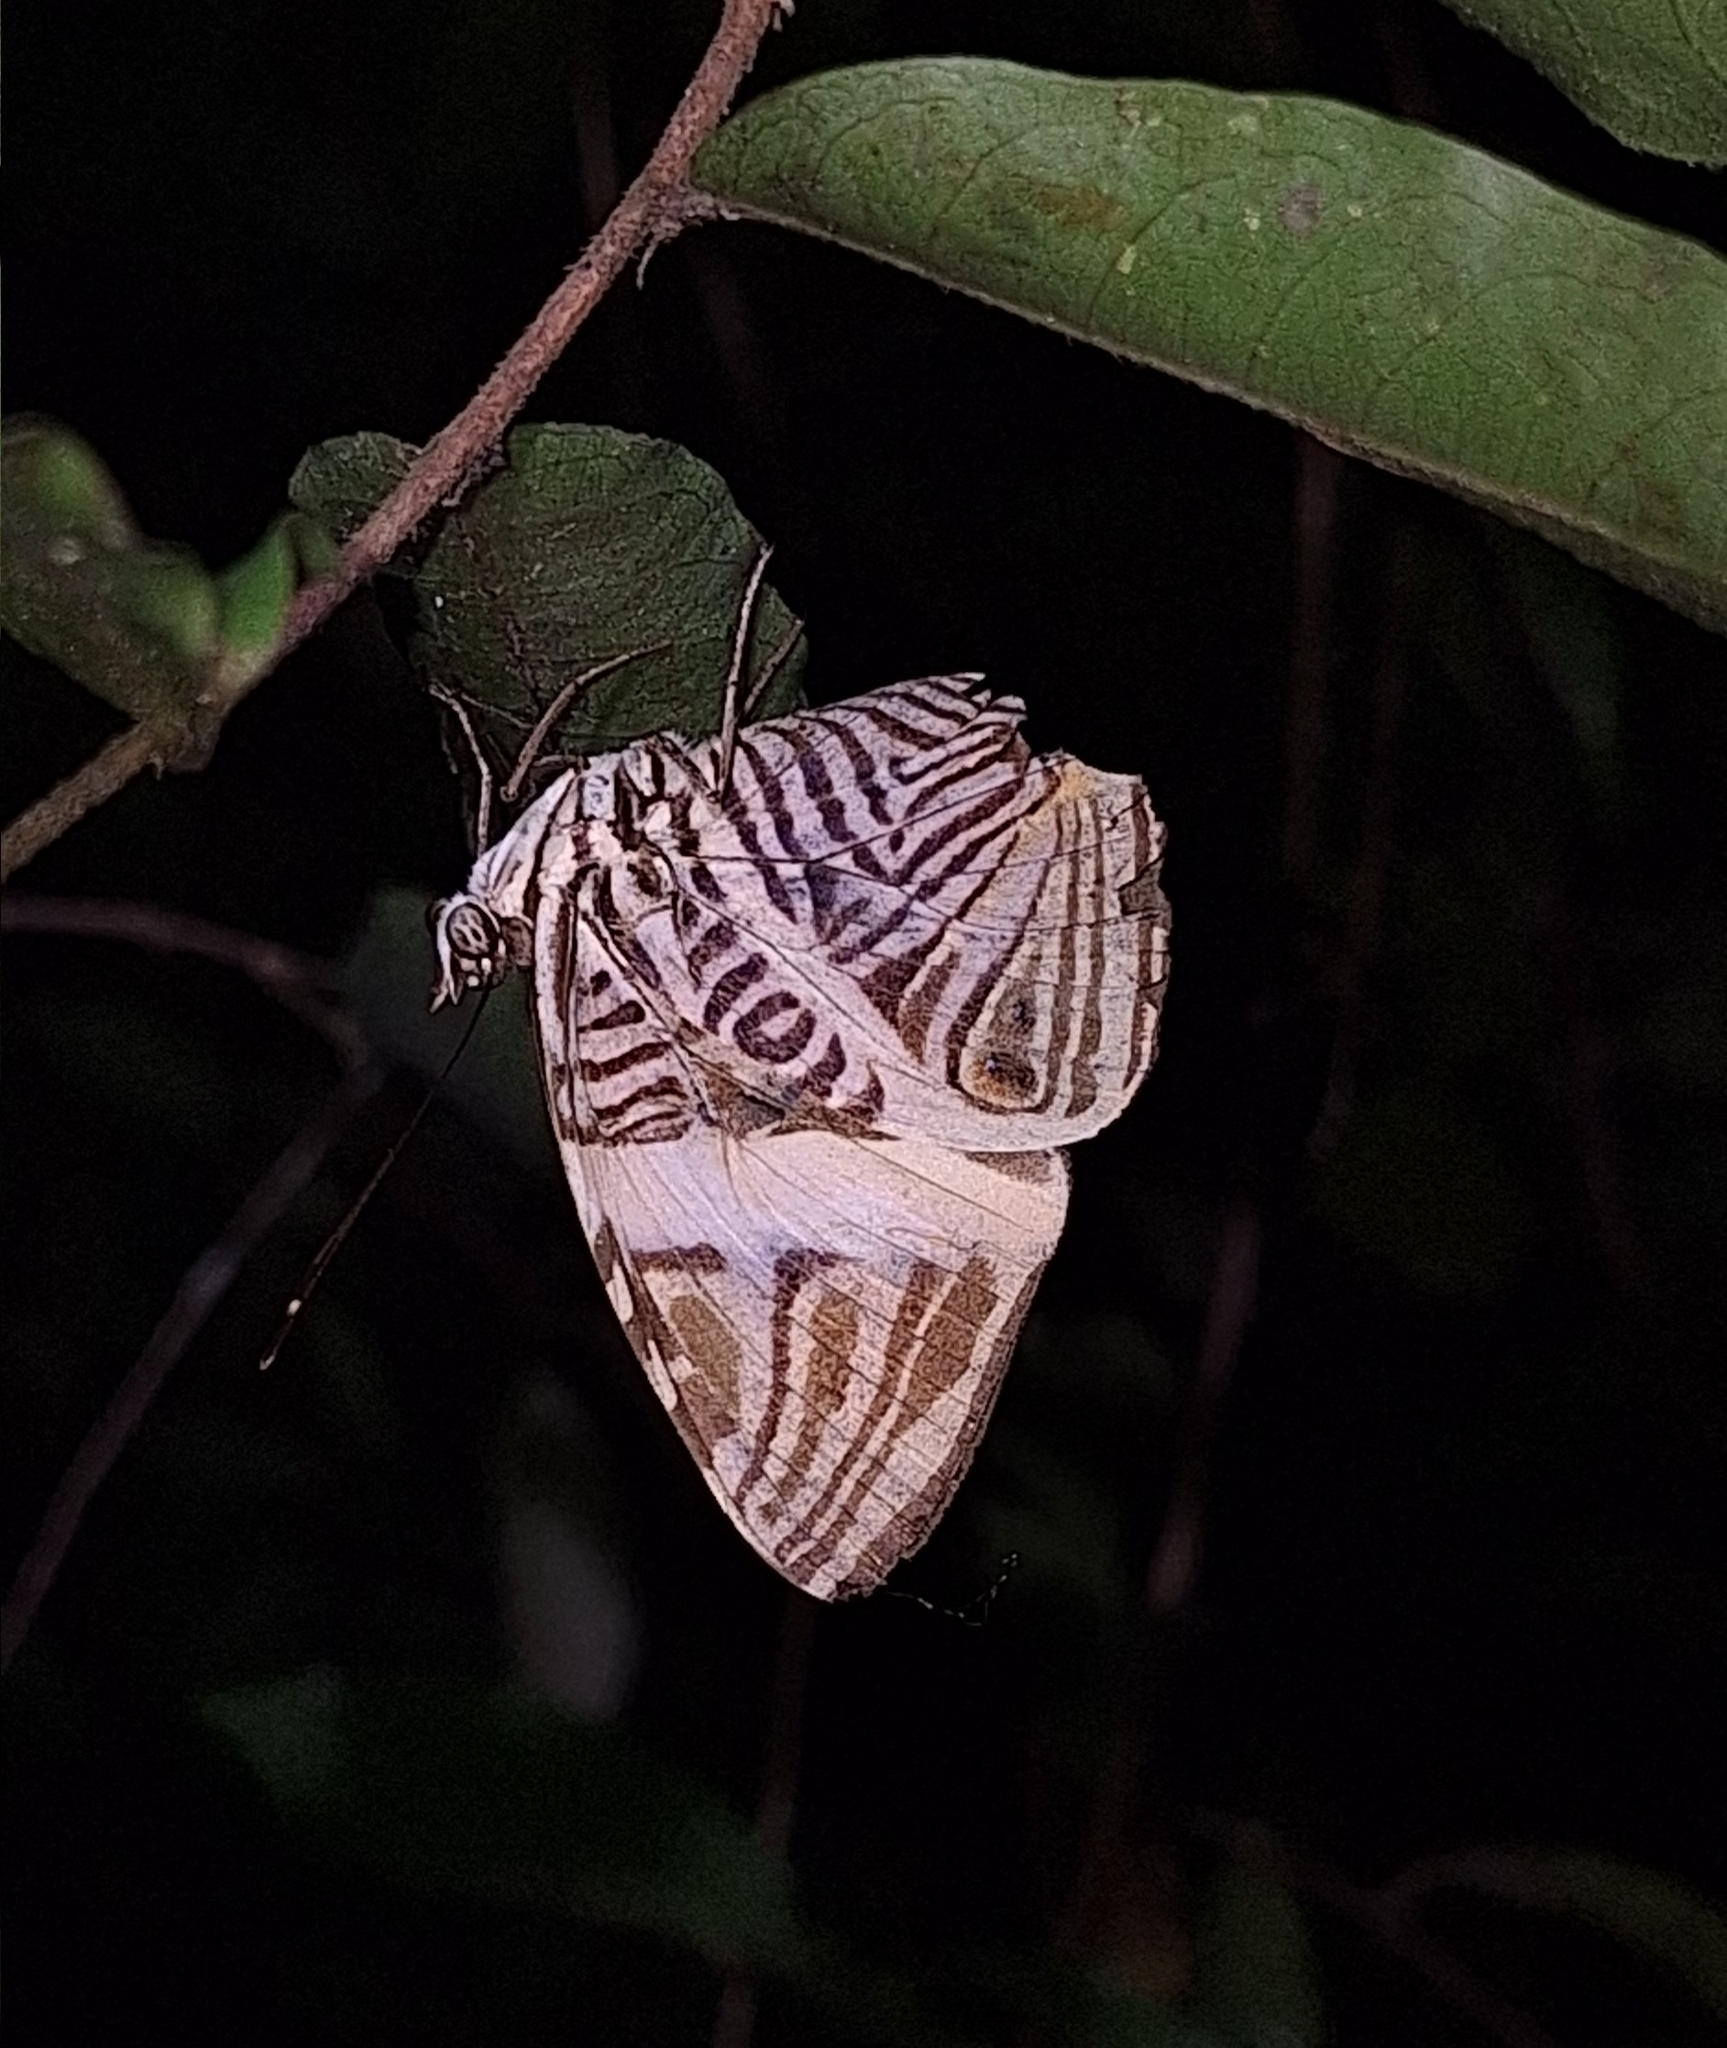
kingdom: Animalia
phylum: Arthropoda
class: Insecta
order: Lepidoptera
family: Nymphalidae
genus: Colobura
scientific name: Colobura dirce
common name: Dirce beauty
